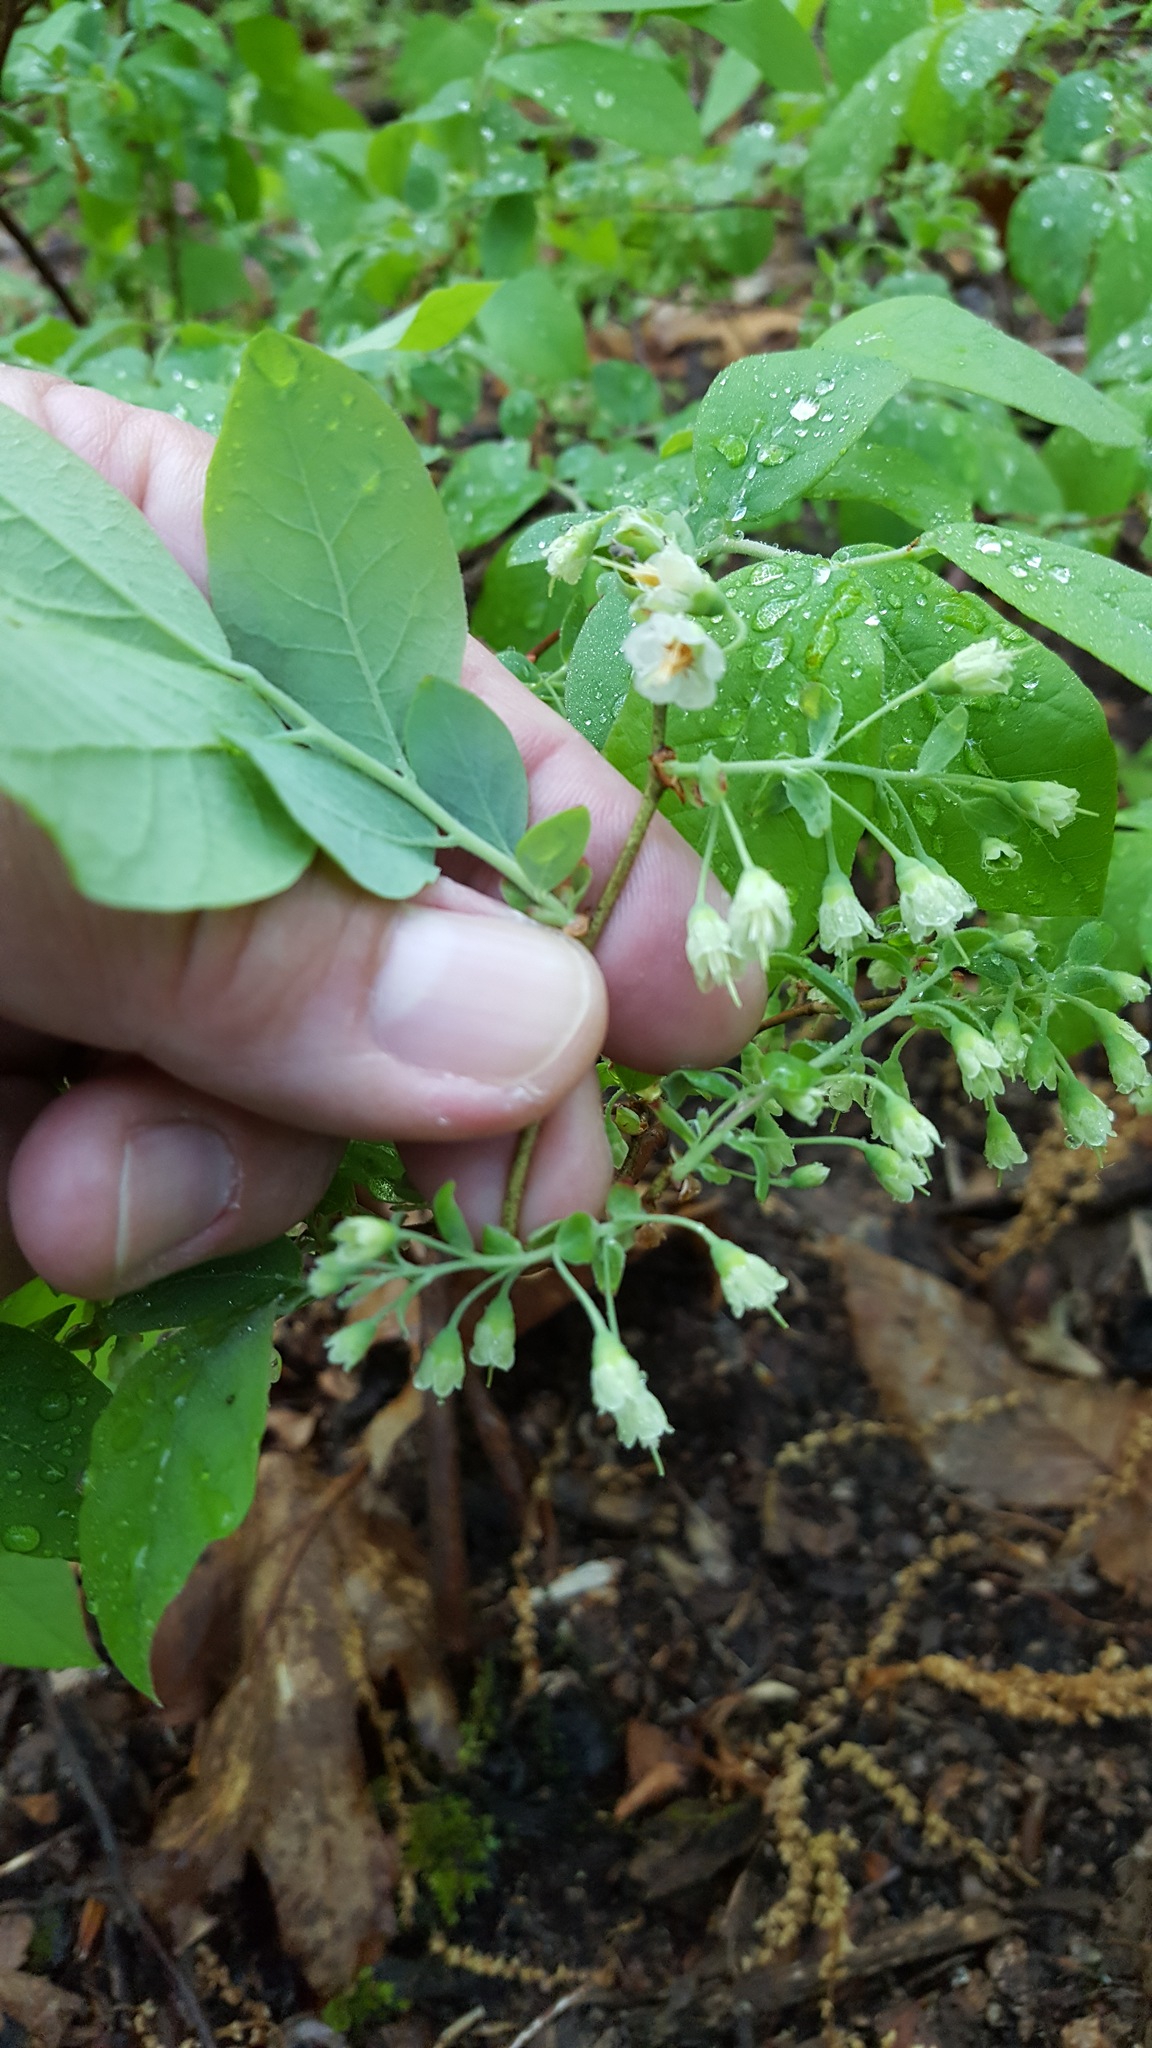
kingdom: Plantae
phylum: Tracheophyta
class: Magnoliopsida
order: Ericales
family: Ericaceae
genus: Vaccinium
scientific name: Vaccinium stamineum
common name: Deerberry
